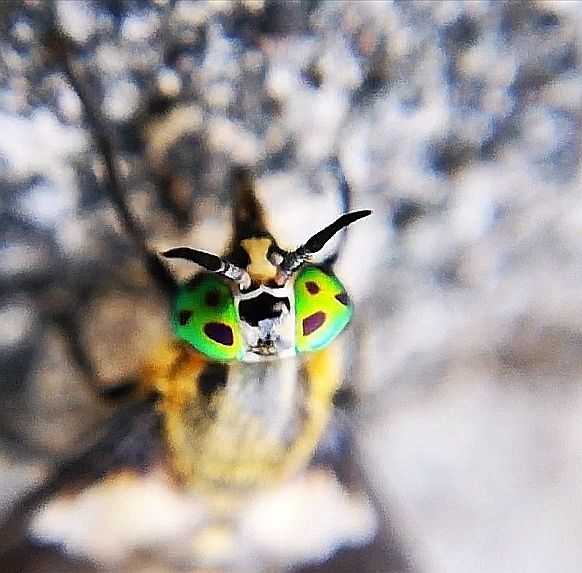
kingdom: Animalia
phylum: Arthropoda
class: Insecta
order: Diptera
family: Tabanidae
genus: Chrysops
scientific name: Chrysops caecutiens
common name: Splayed deerfly
